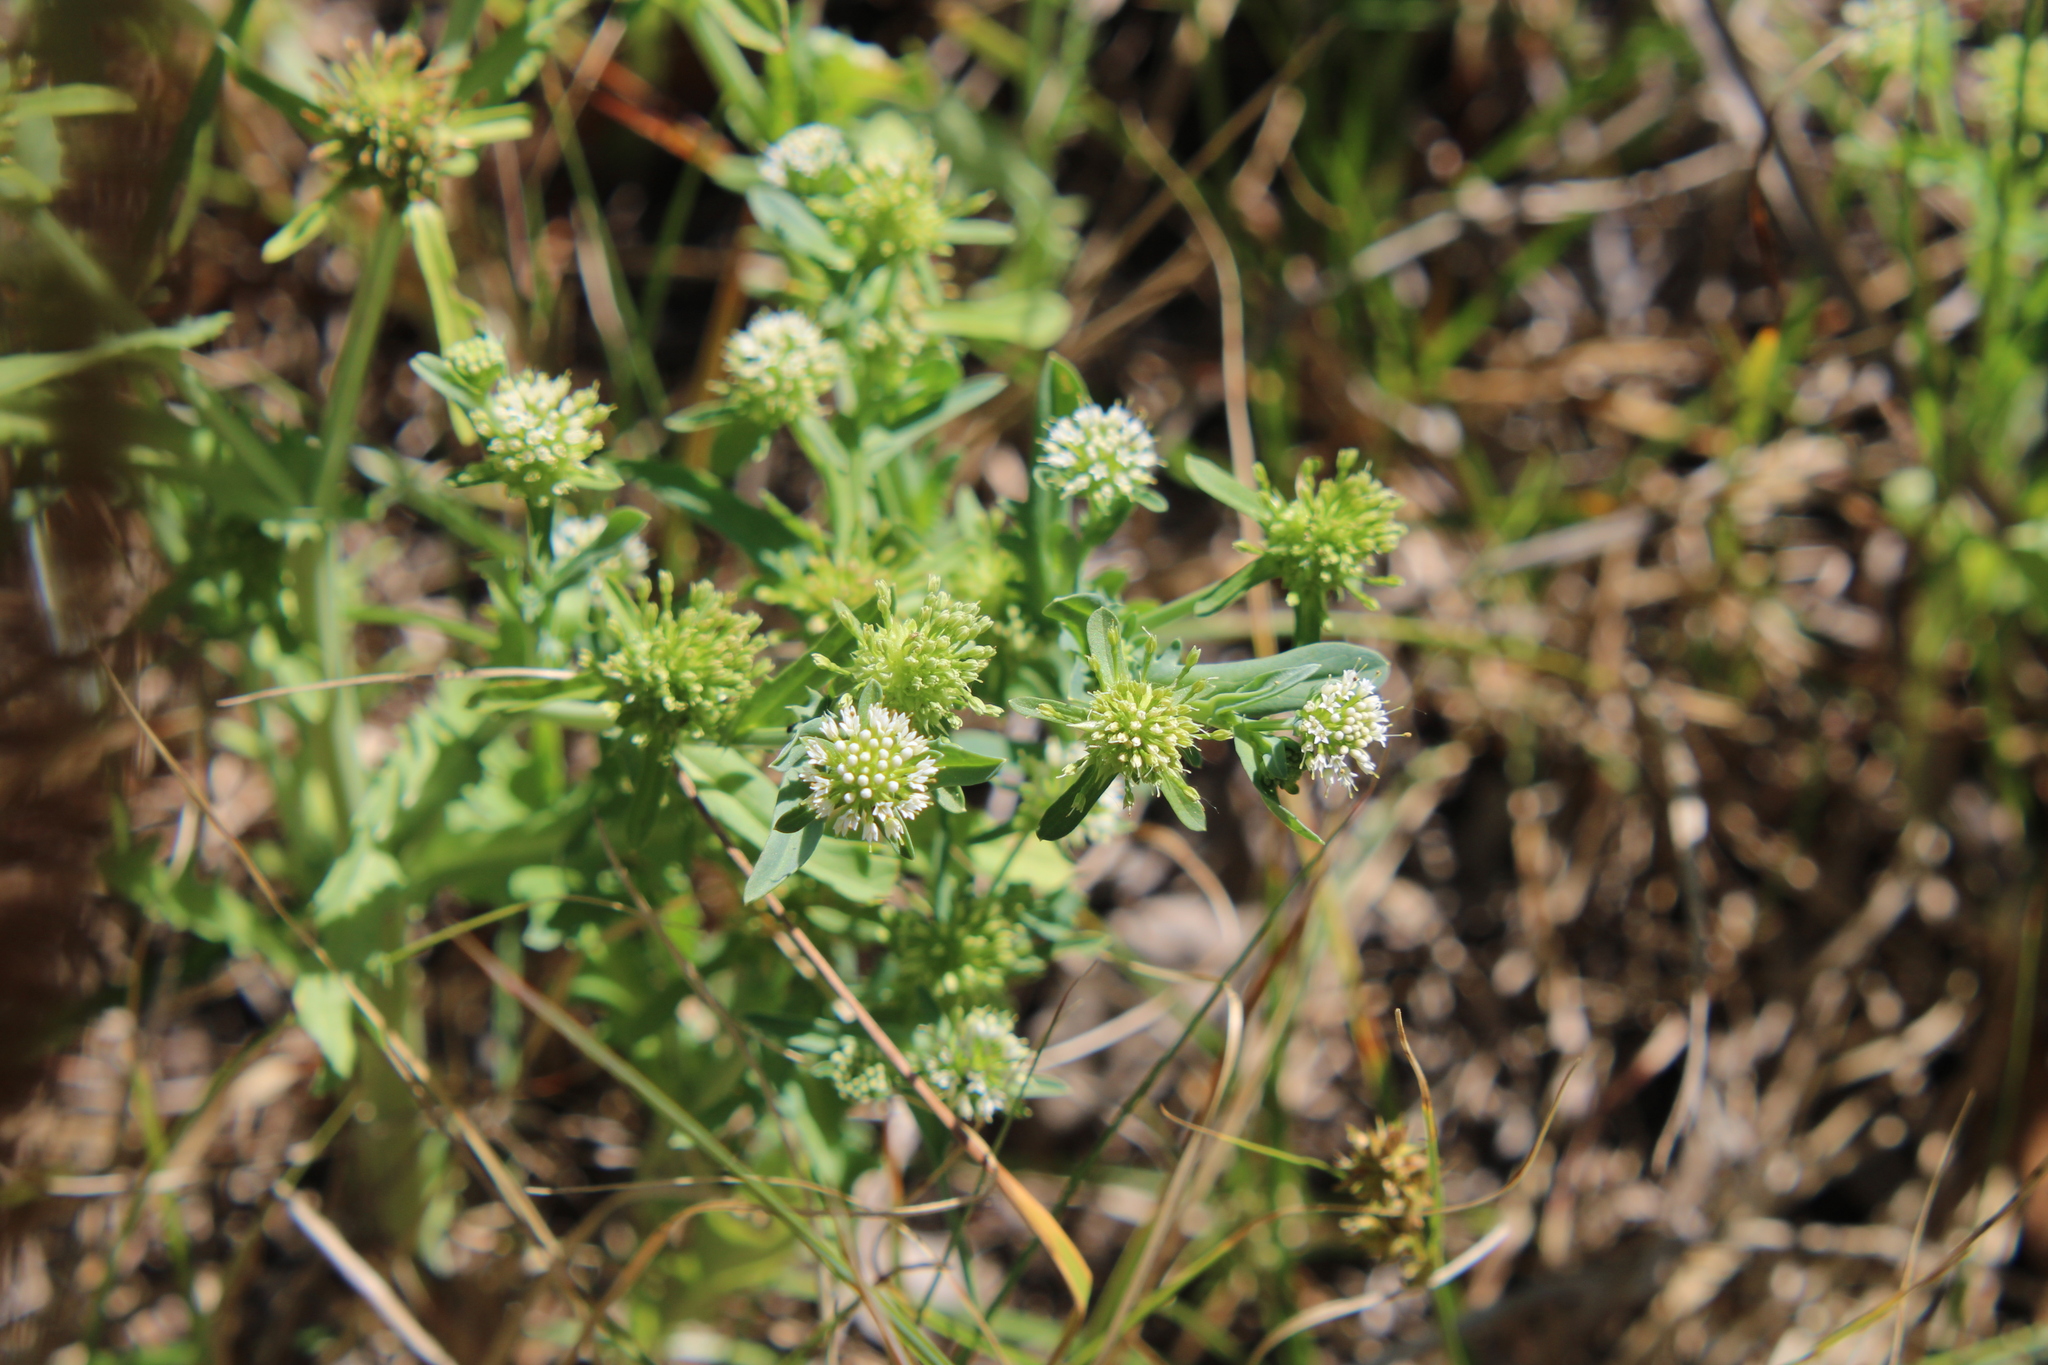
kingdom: Plantae
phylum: Tracheophyta
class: Magnoliopsida
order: Asterales
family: Calyceraceae
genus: Acicarpha
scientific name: Acicarpha tribuloides
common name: Madam gorgon
